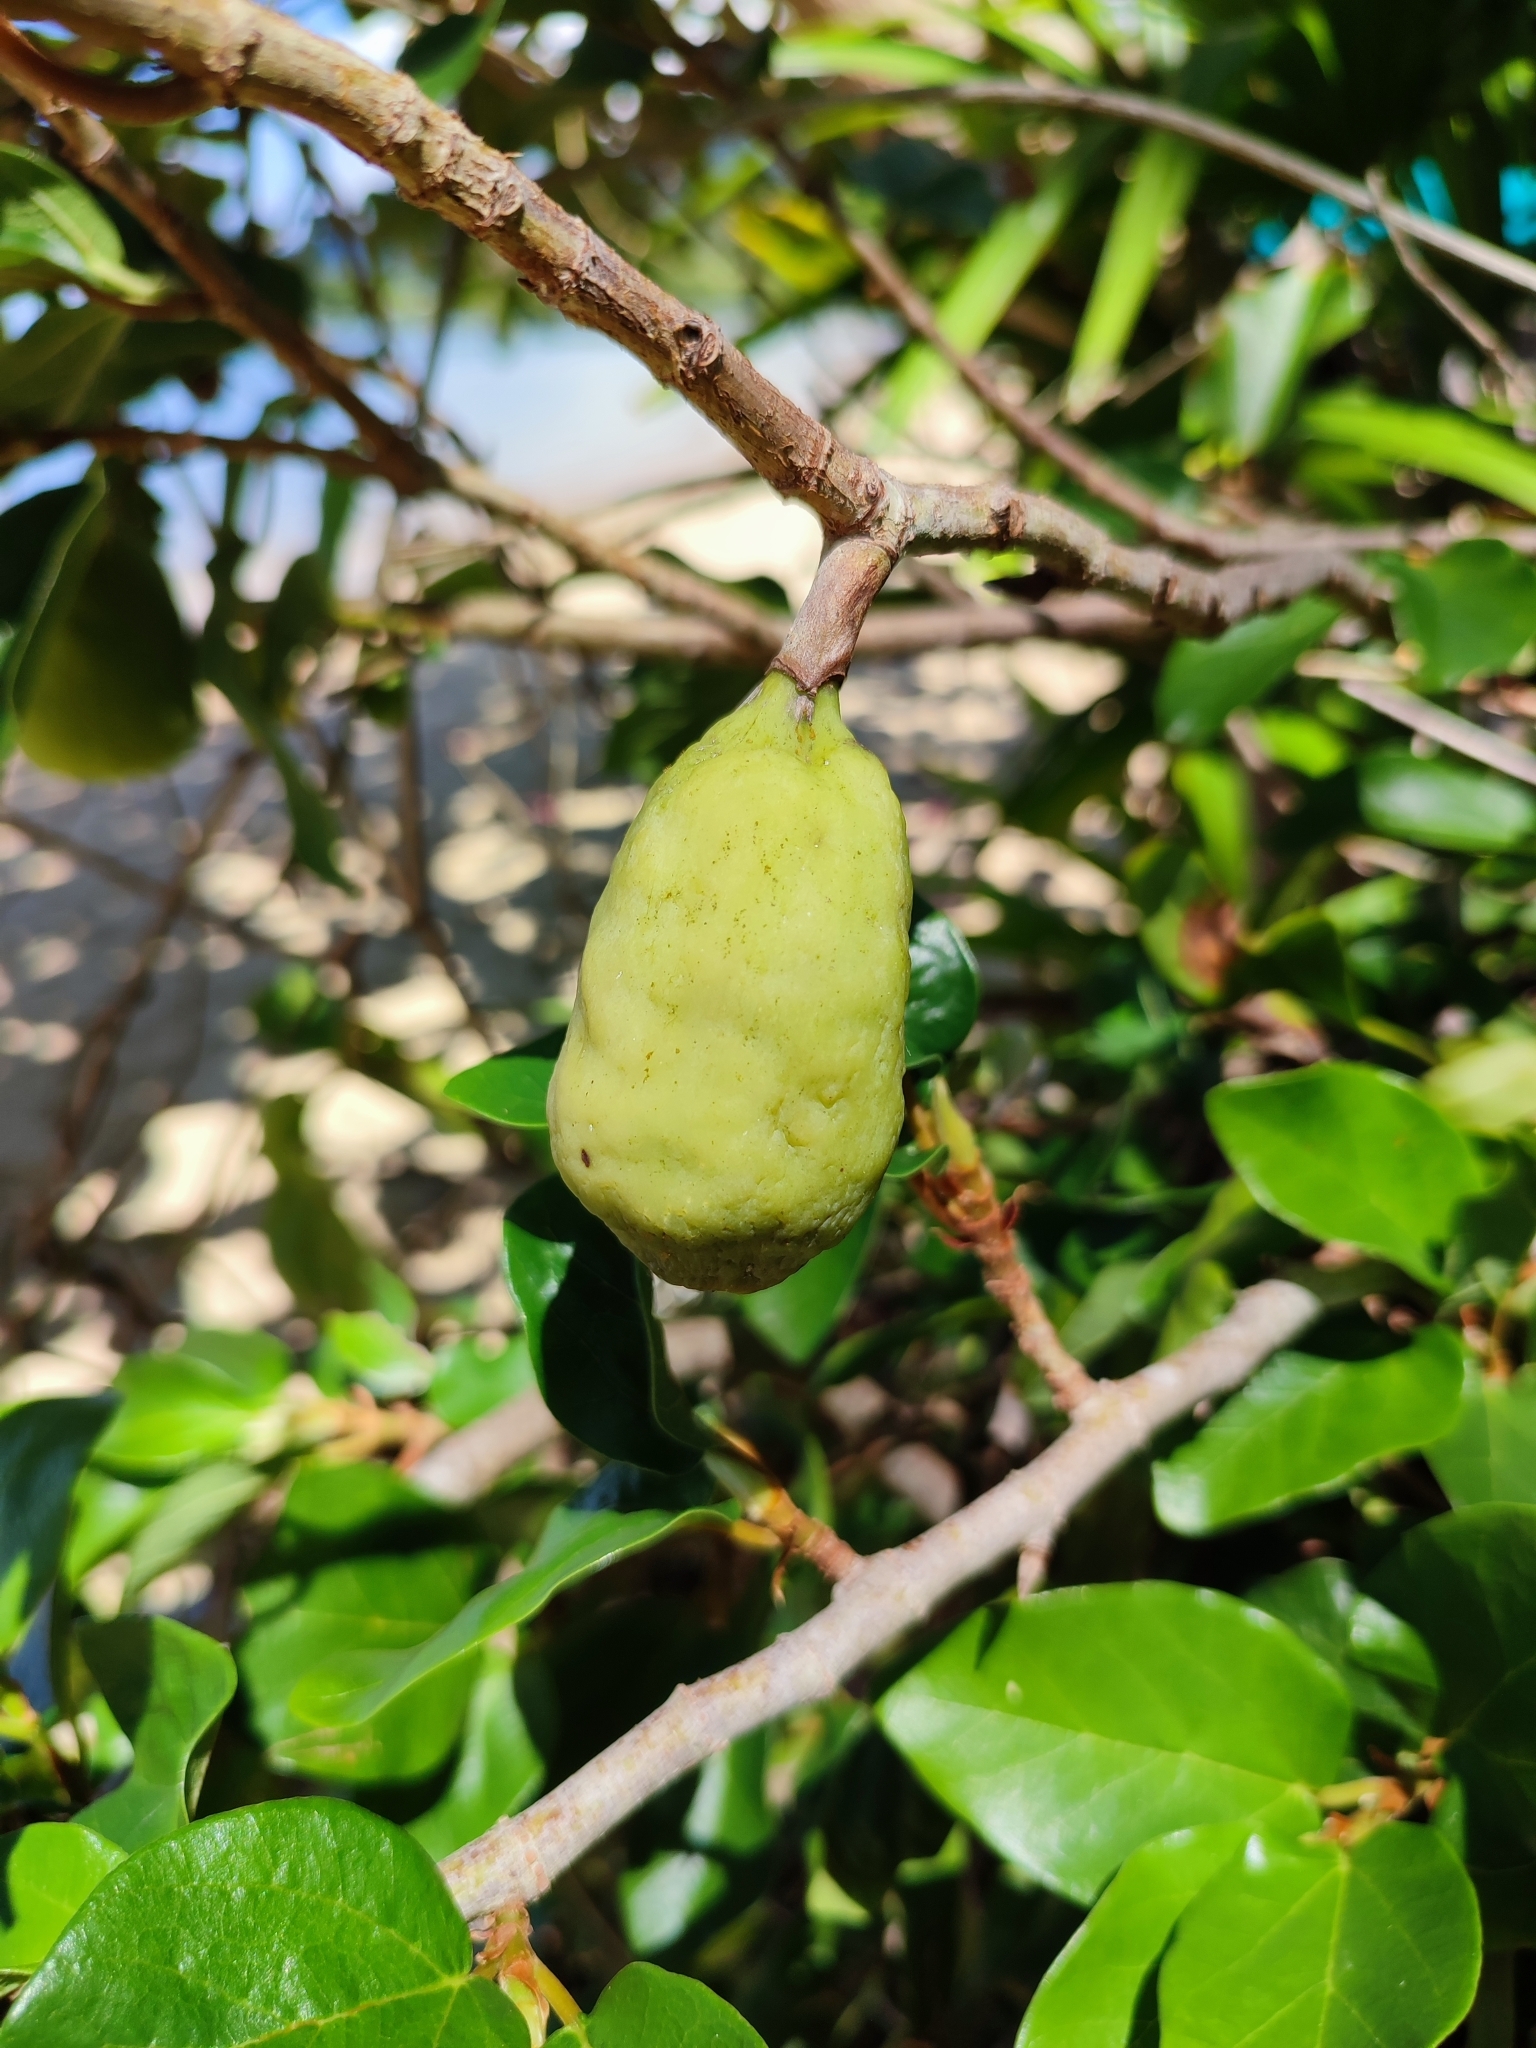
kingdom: Plantae
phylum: Tracheophyta
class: Magnoliopsida
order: Rosales
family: Moraceae
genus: Ficus
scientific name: Ficus pumila
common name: Climbingfig
